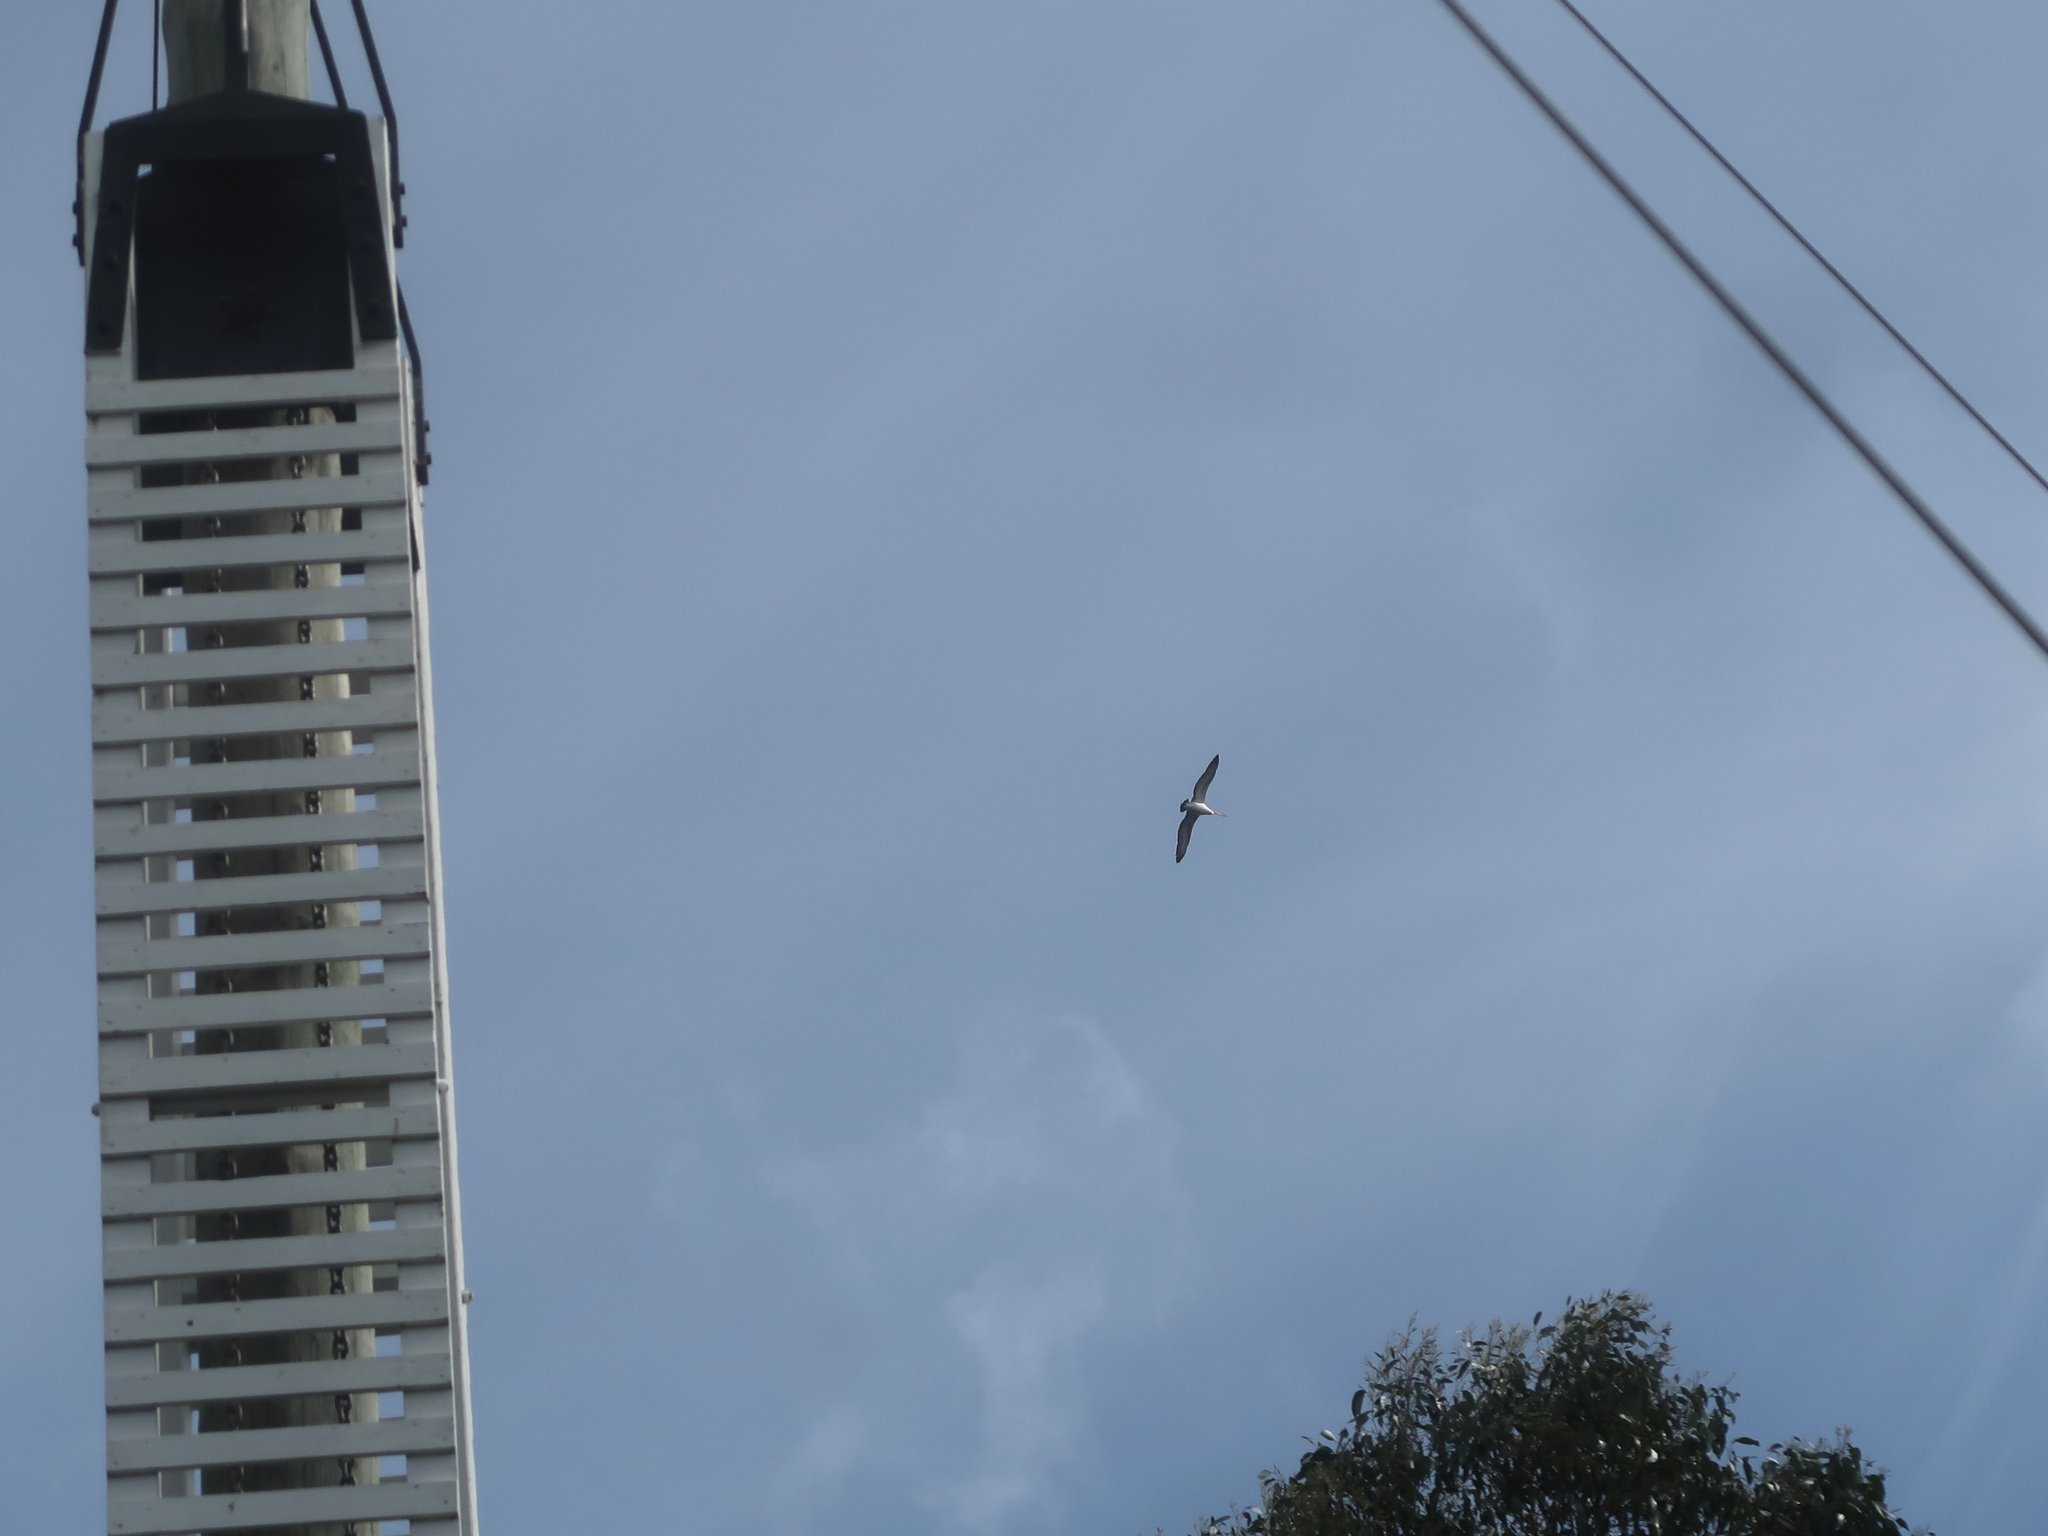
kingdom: Animalia
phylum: Chordata
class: Aves
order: Pelecaniformes
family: Pelecanidae
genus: Pelecanus
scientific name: Pelecanus conspicillatus
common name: Australian pelican
